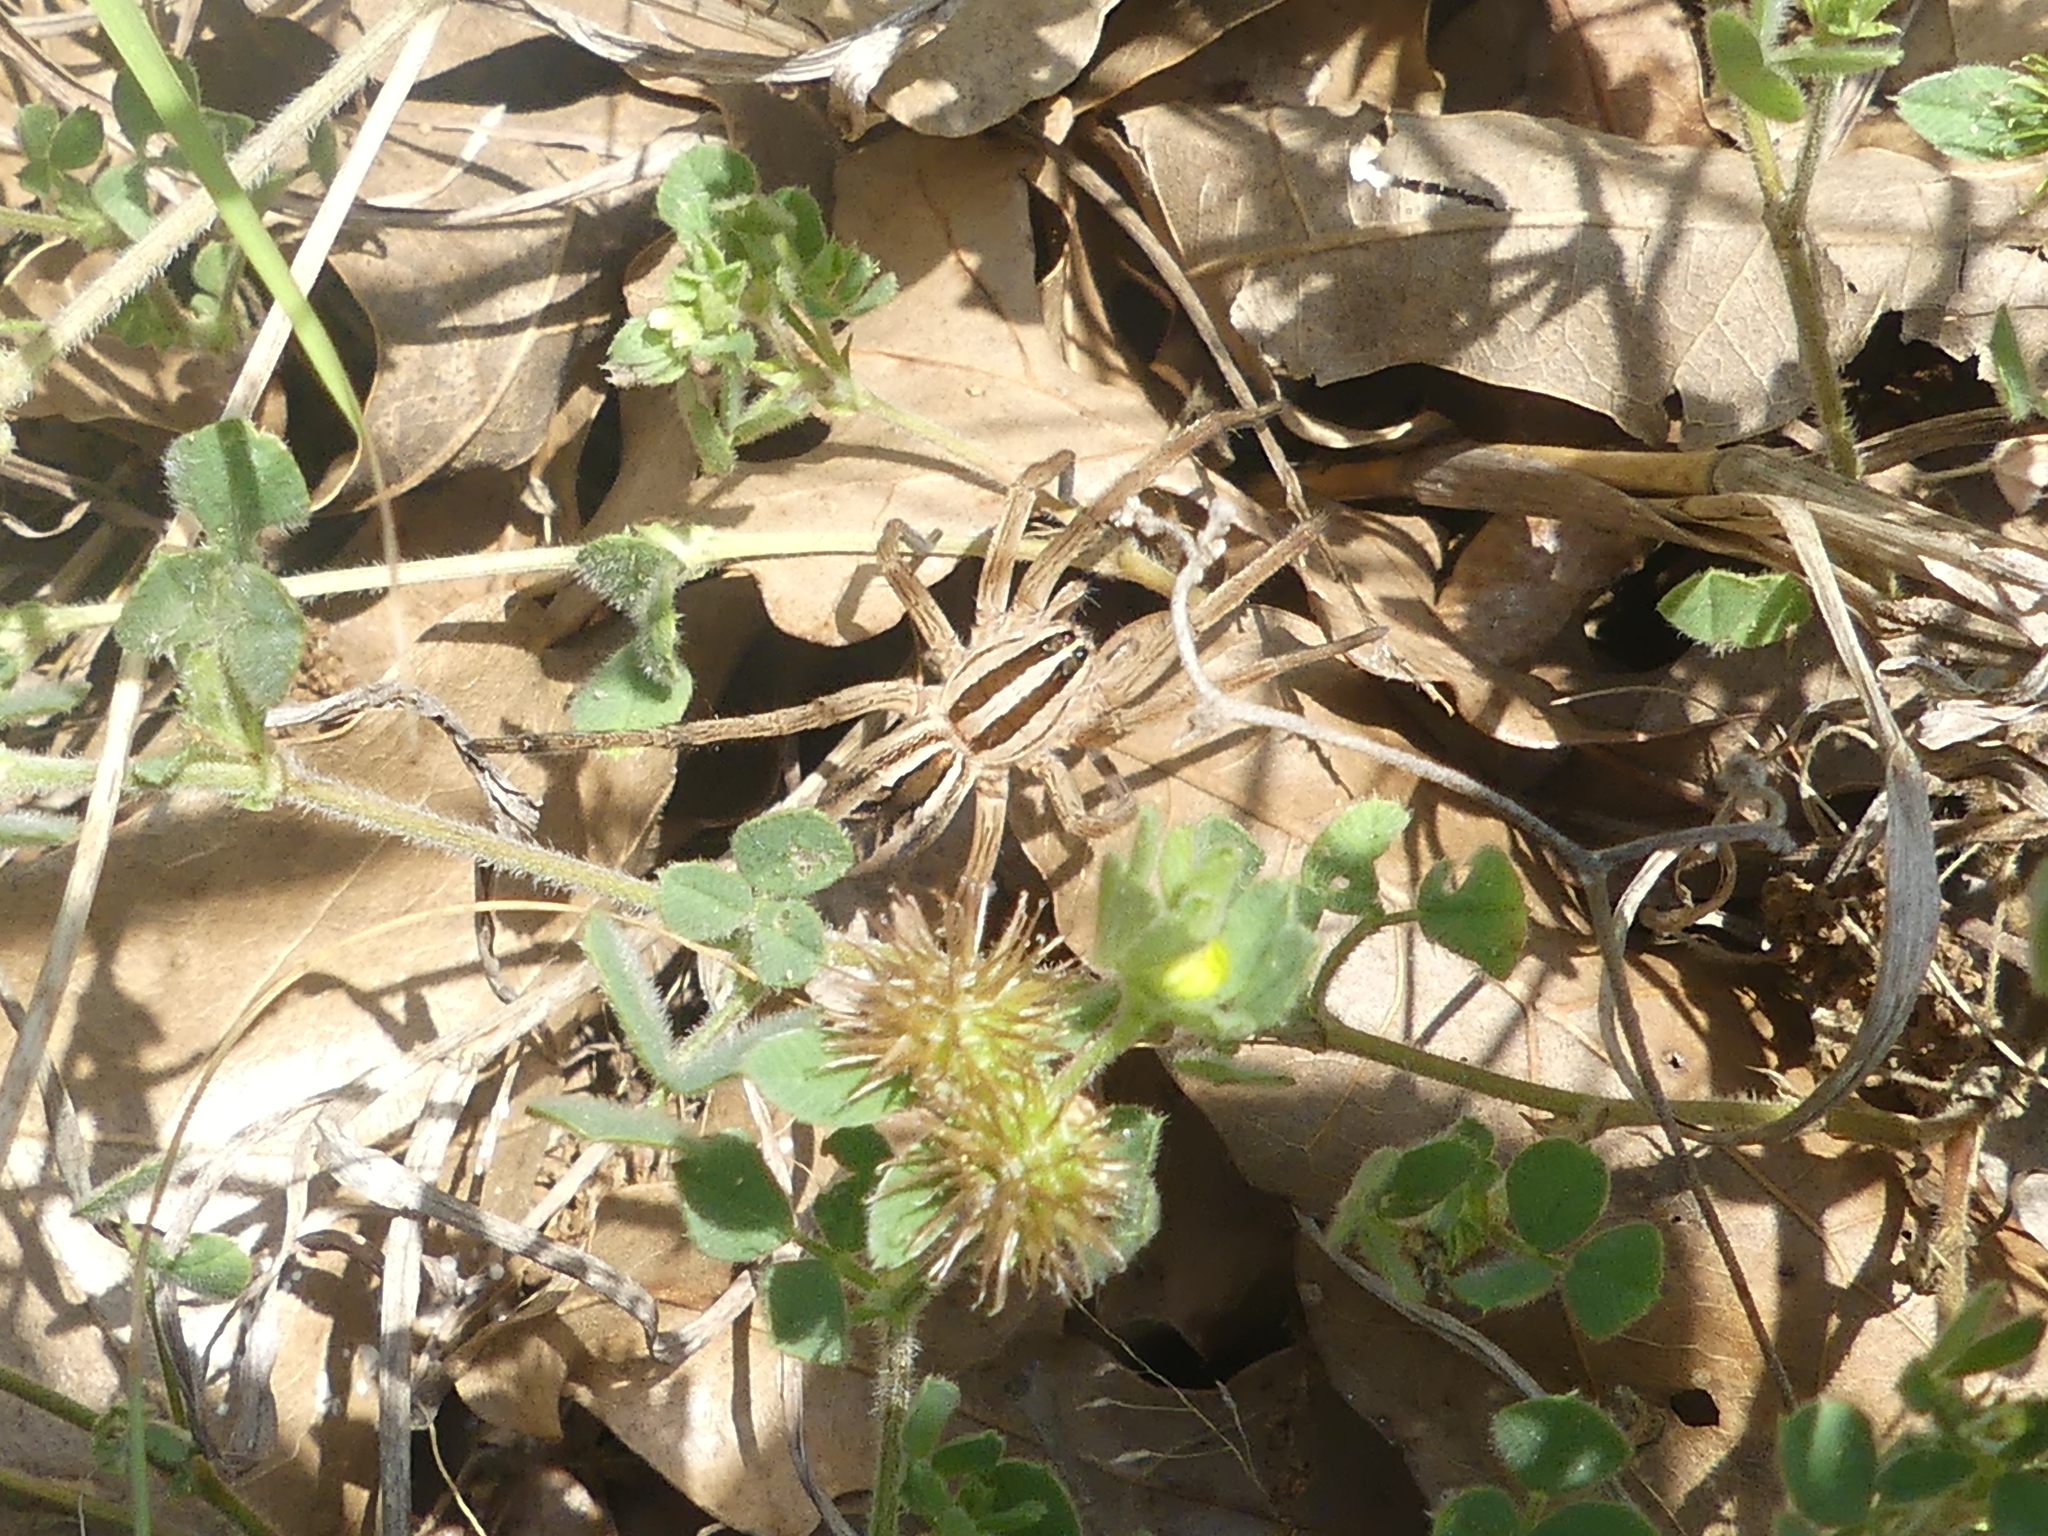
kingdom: Animalia
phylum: Arthropoda
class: Arachnida
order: Araneae
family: Lycosidae
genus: Rabidosa
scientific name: Rabidosa rabida
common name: Rabid wolf spider
